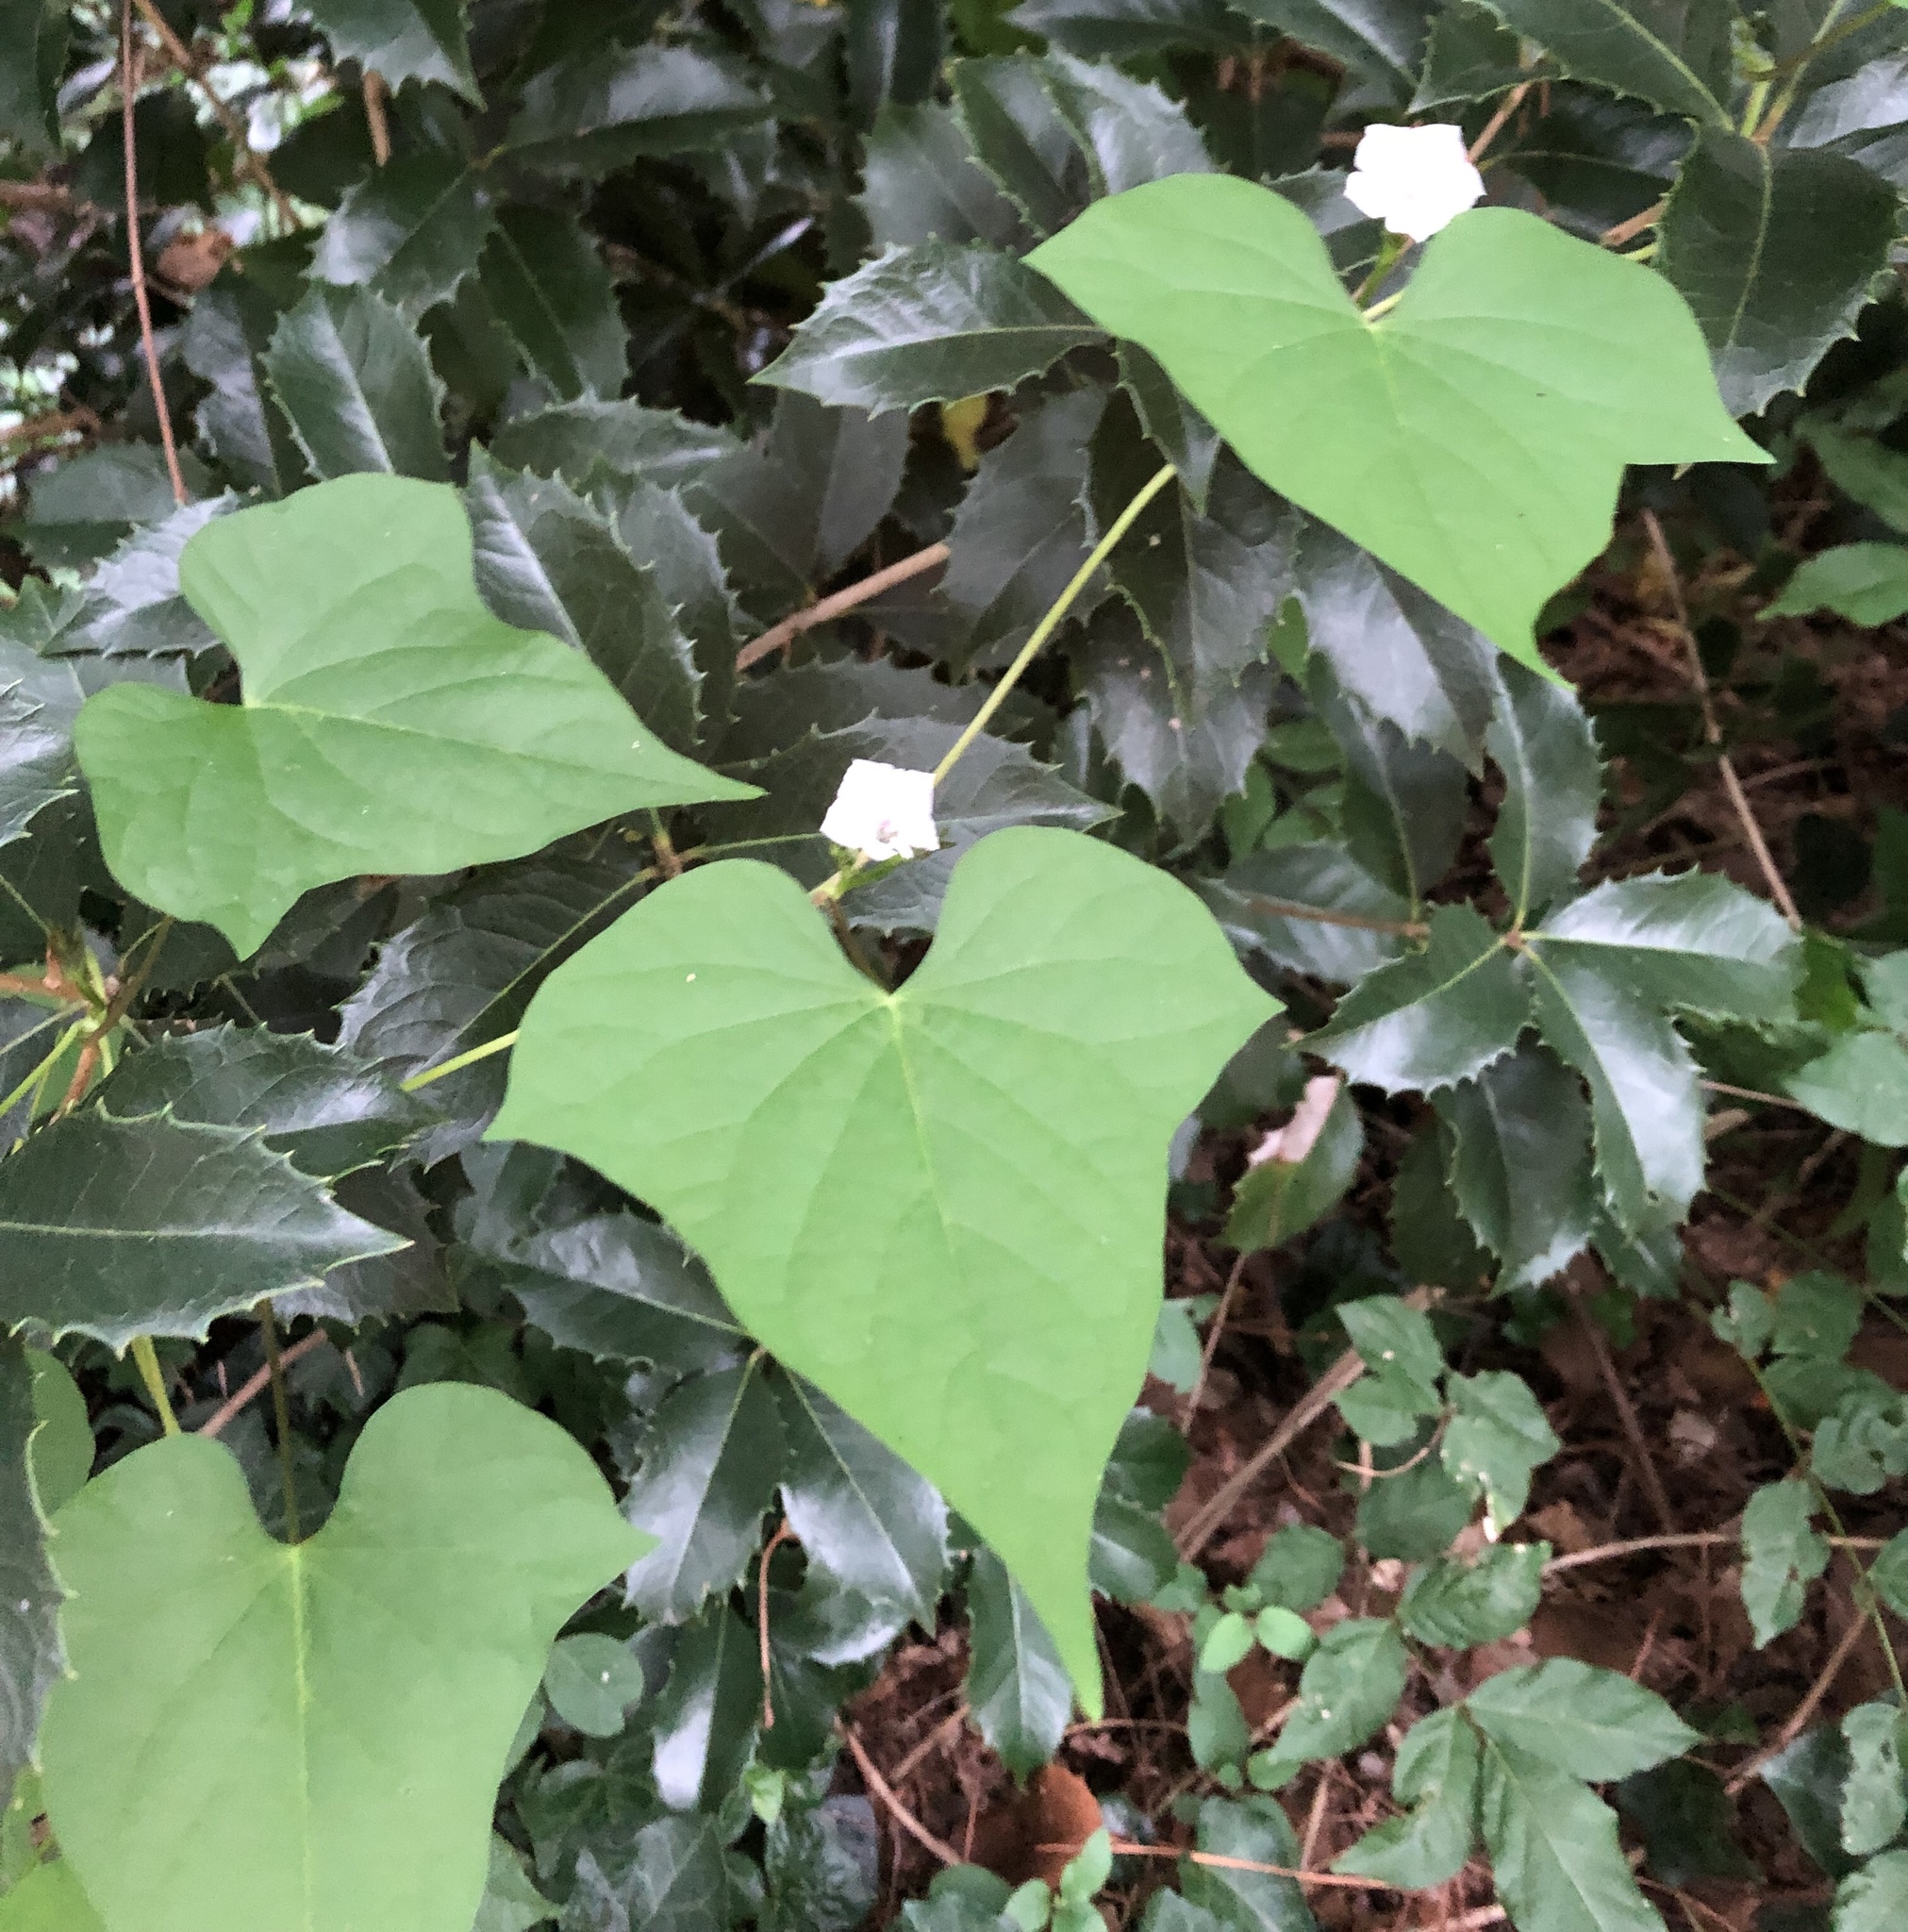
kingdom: Plantae
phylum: Tracheophyta
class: Magnoliopsida
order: Solanales
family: Convolvulaceae
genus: Ipomoea
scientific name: Ipomoea lacunosa
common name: White morning-glory
